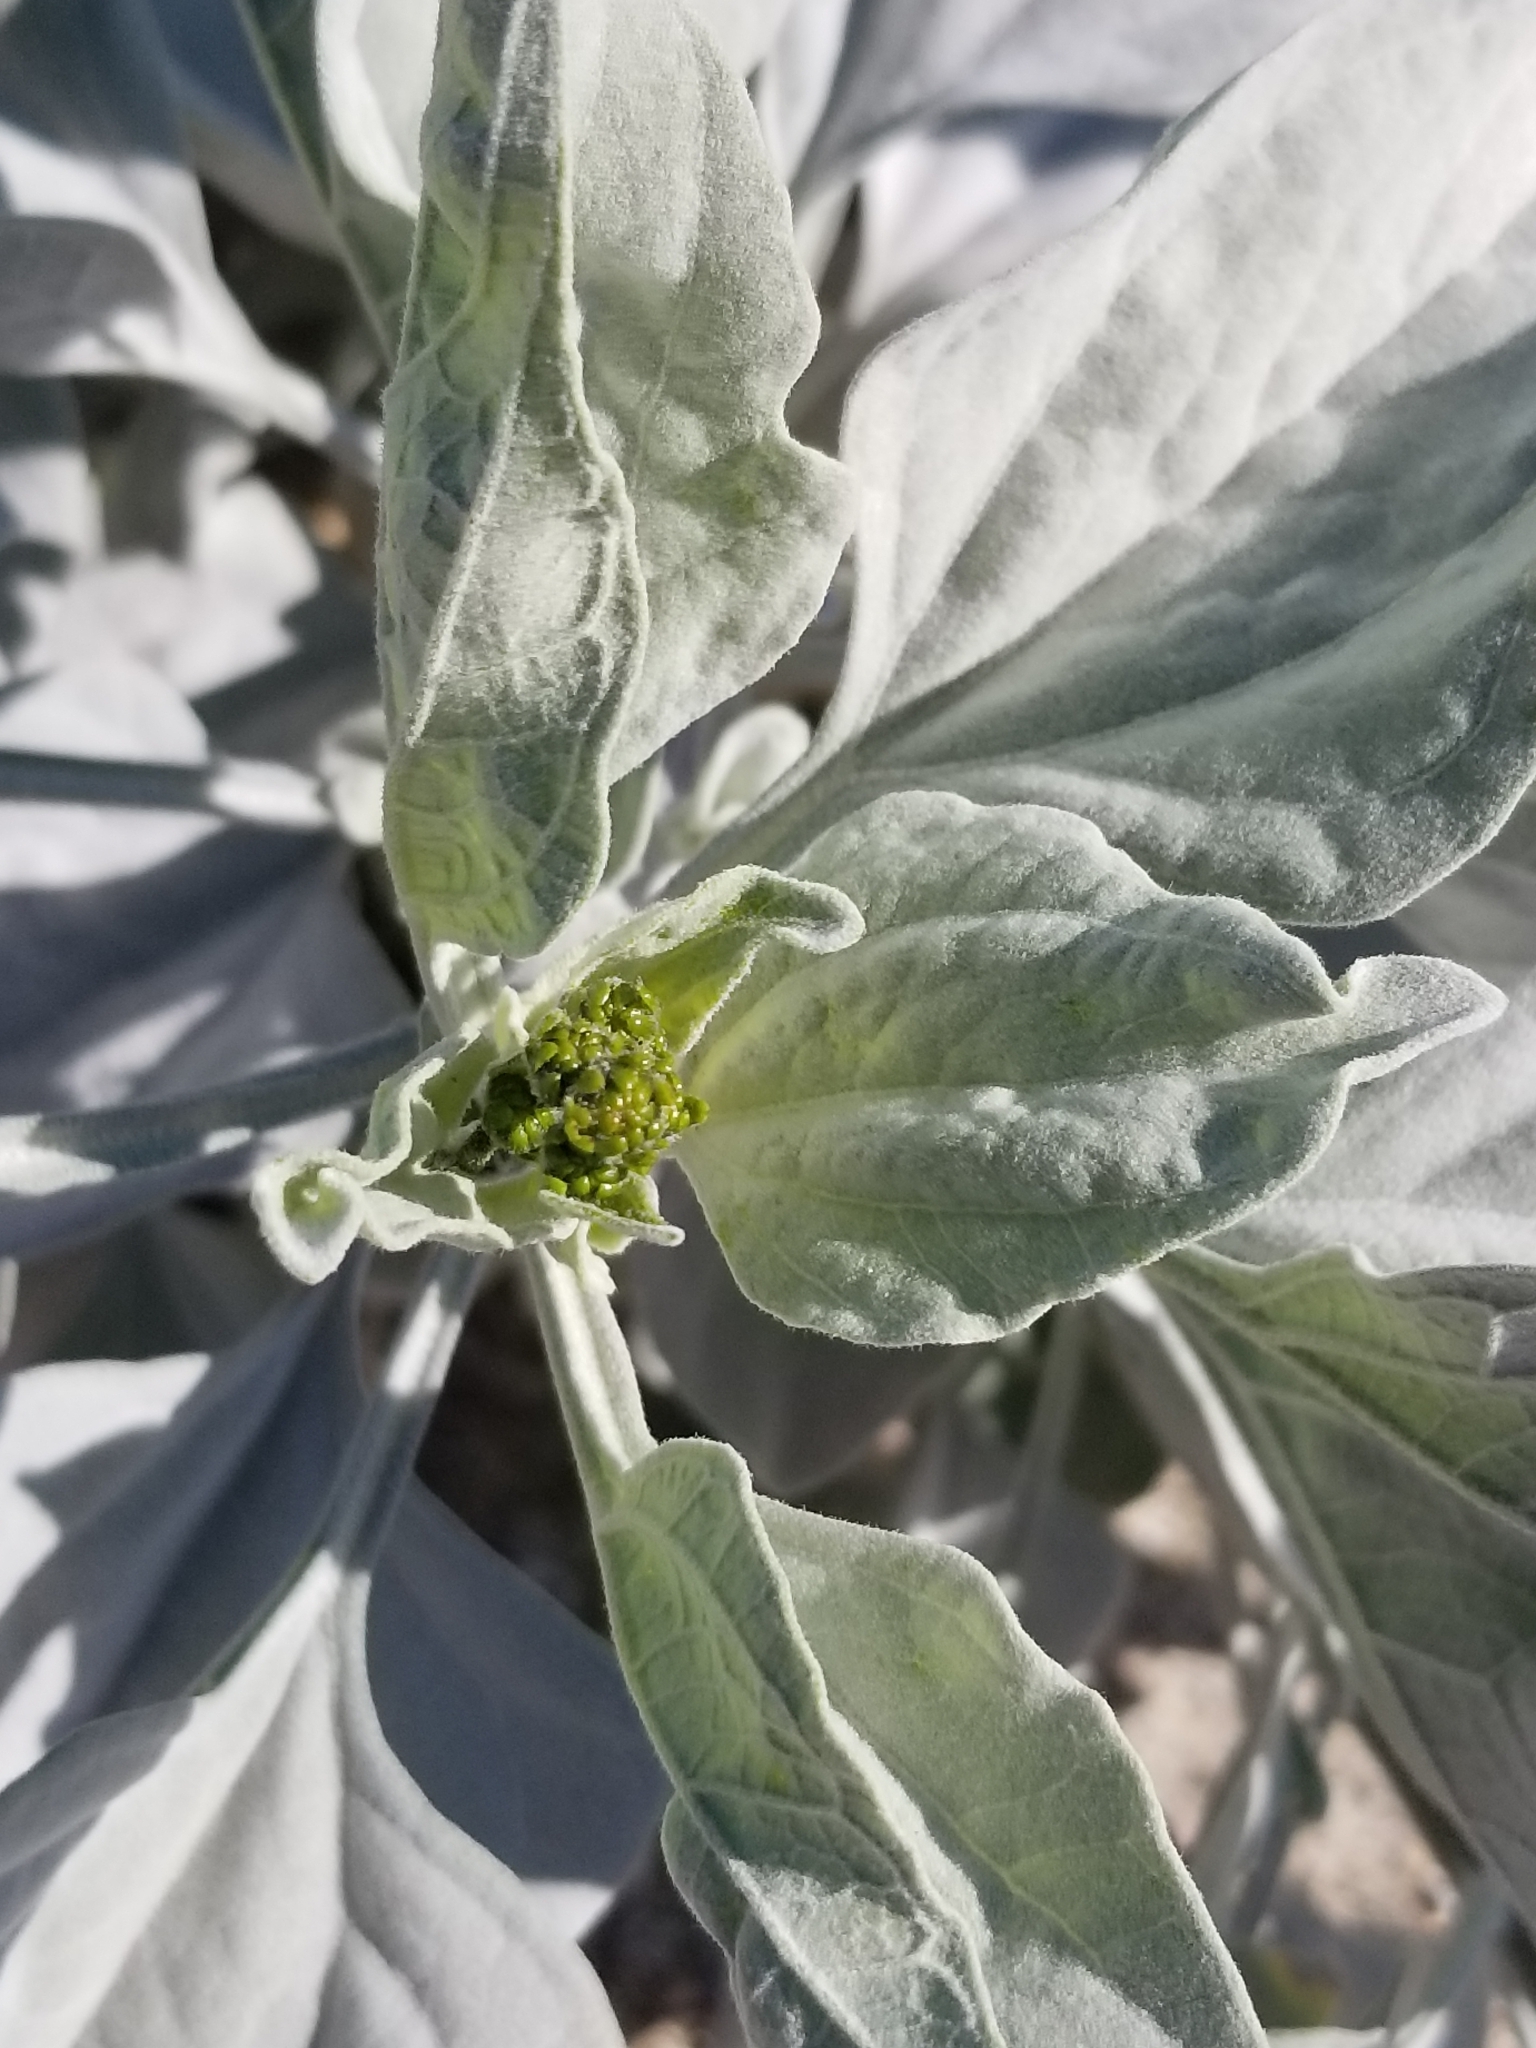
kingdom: Plantae
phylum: Tracheophyta
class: Magnoliopsida
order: Asterales
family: Asteraceae
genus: Encelia
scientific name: Encelia farinosa
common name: Brittlebush
